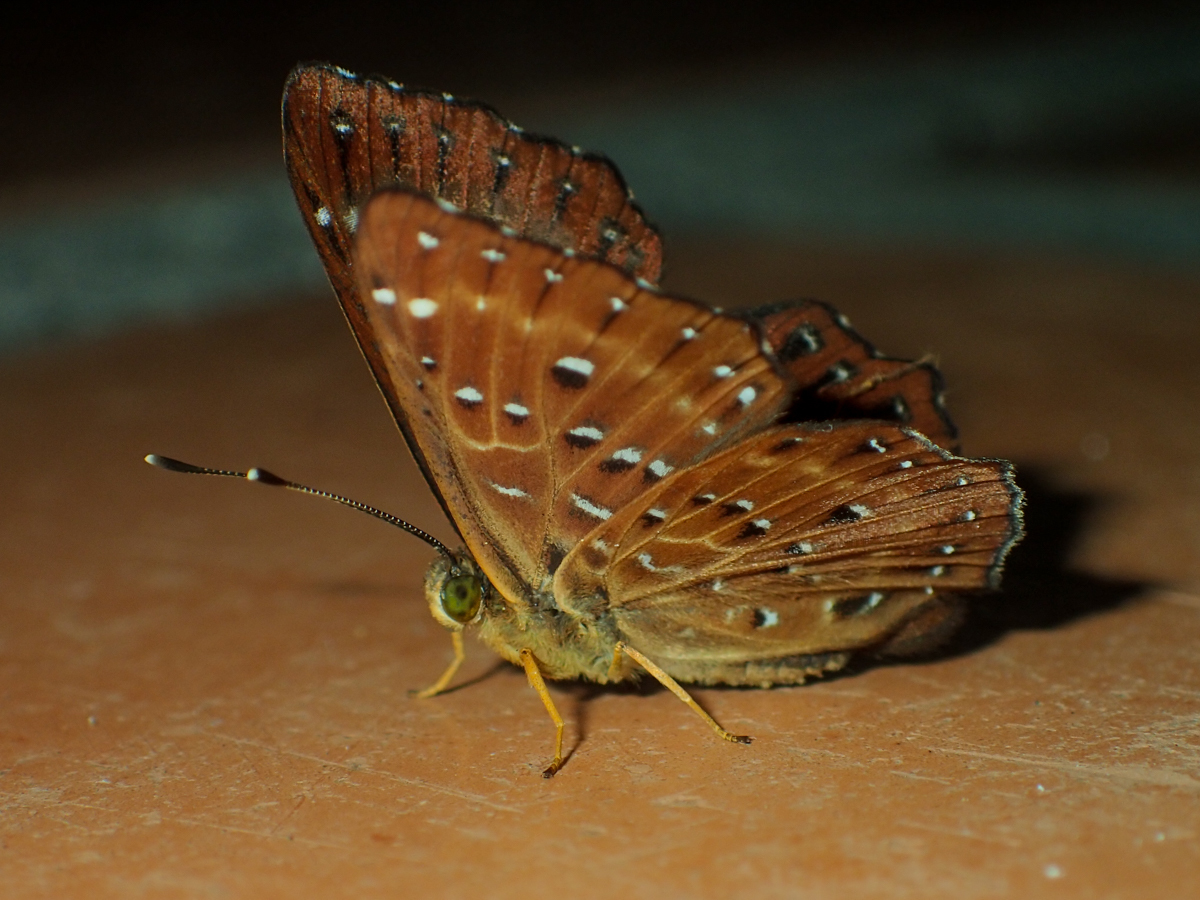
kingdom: Animalia
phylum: Arthropoda
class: Insecta
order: Lepidoptera
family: Riodinidae
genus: Zemeros
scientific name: Zemeros flegyas
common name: Punchinello
